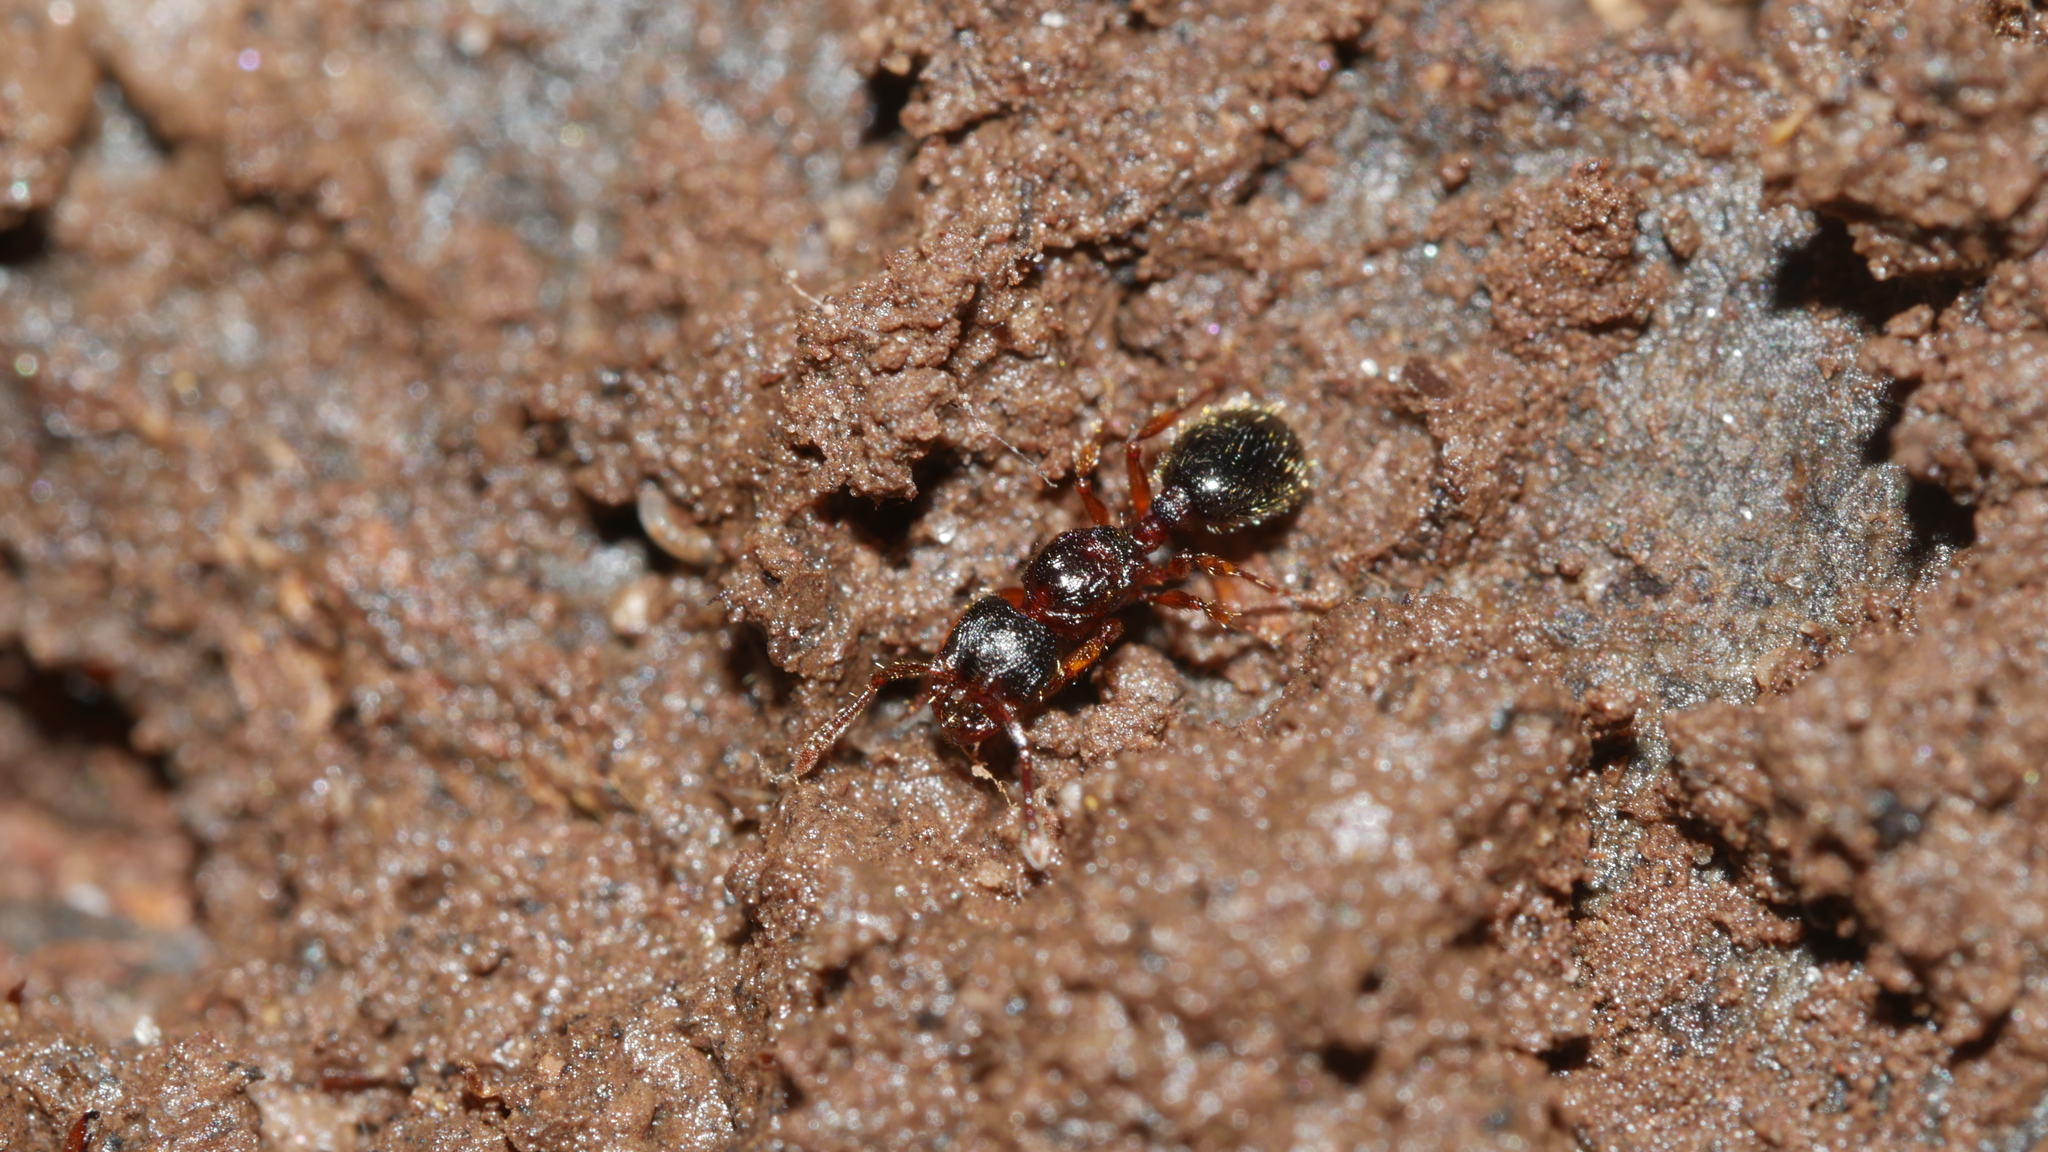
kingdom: Animalia
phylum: Arthropoda
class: Insecta
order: Hymenoptera
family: Formicidae
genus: Myrmecina
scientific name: Myrmecina americana
